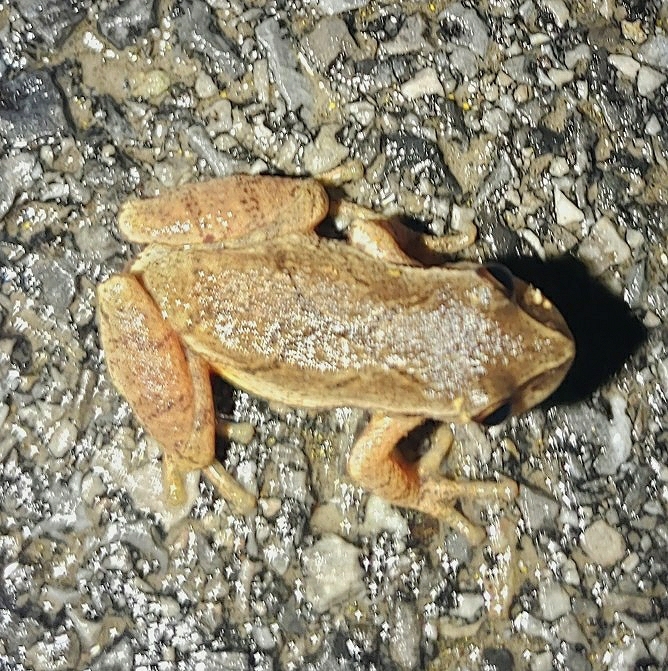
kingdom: Animalia
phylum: Chordata
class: Amphibia
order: Anura
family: Hylidae
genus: Pseudacris
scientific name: Pseudacris crucifer
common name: Spring peeper
